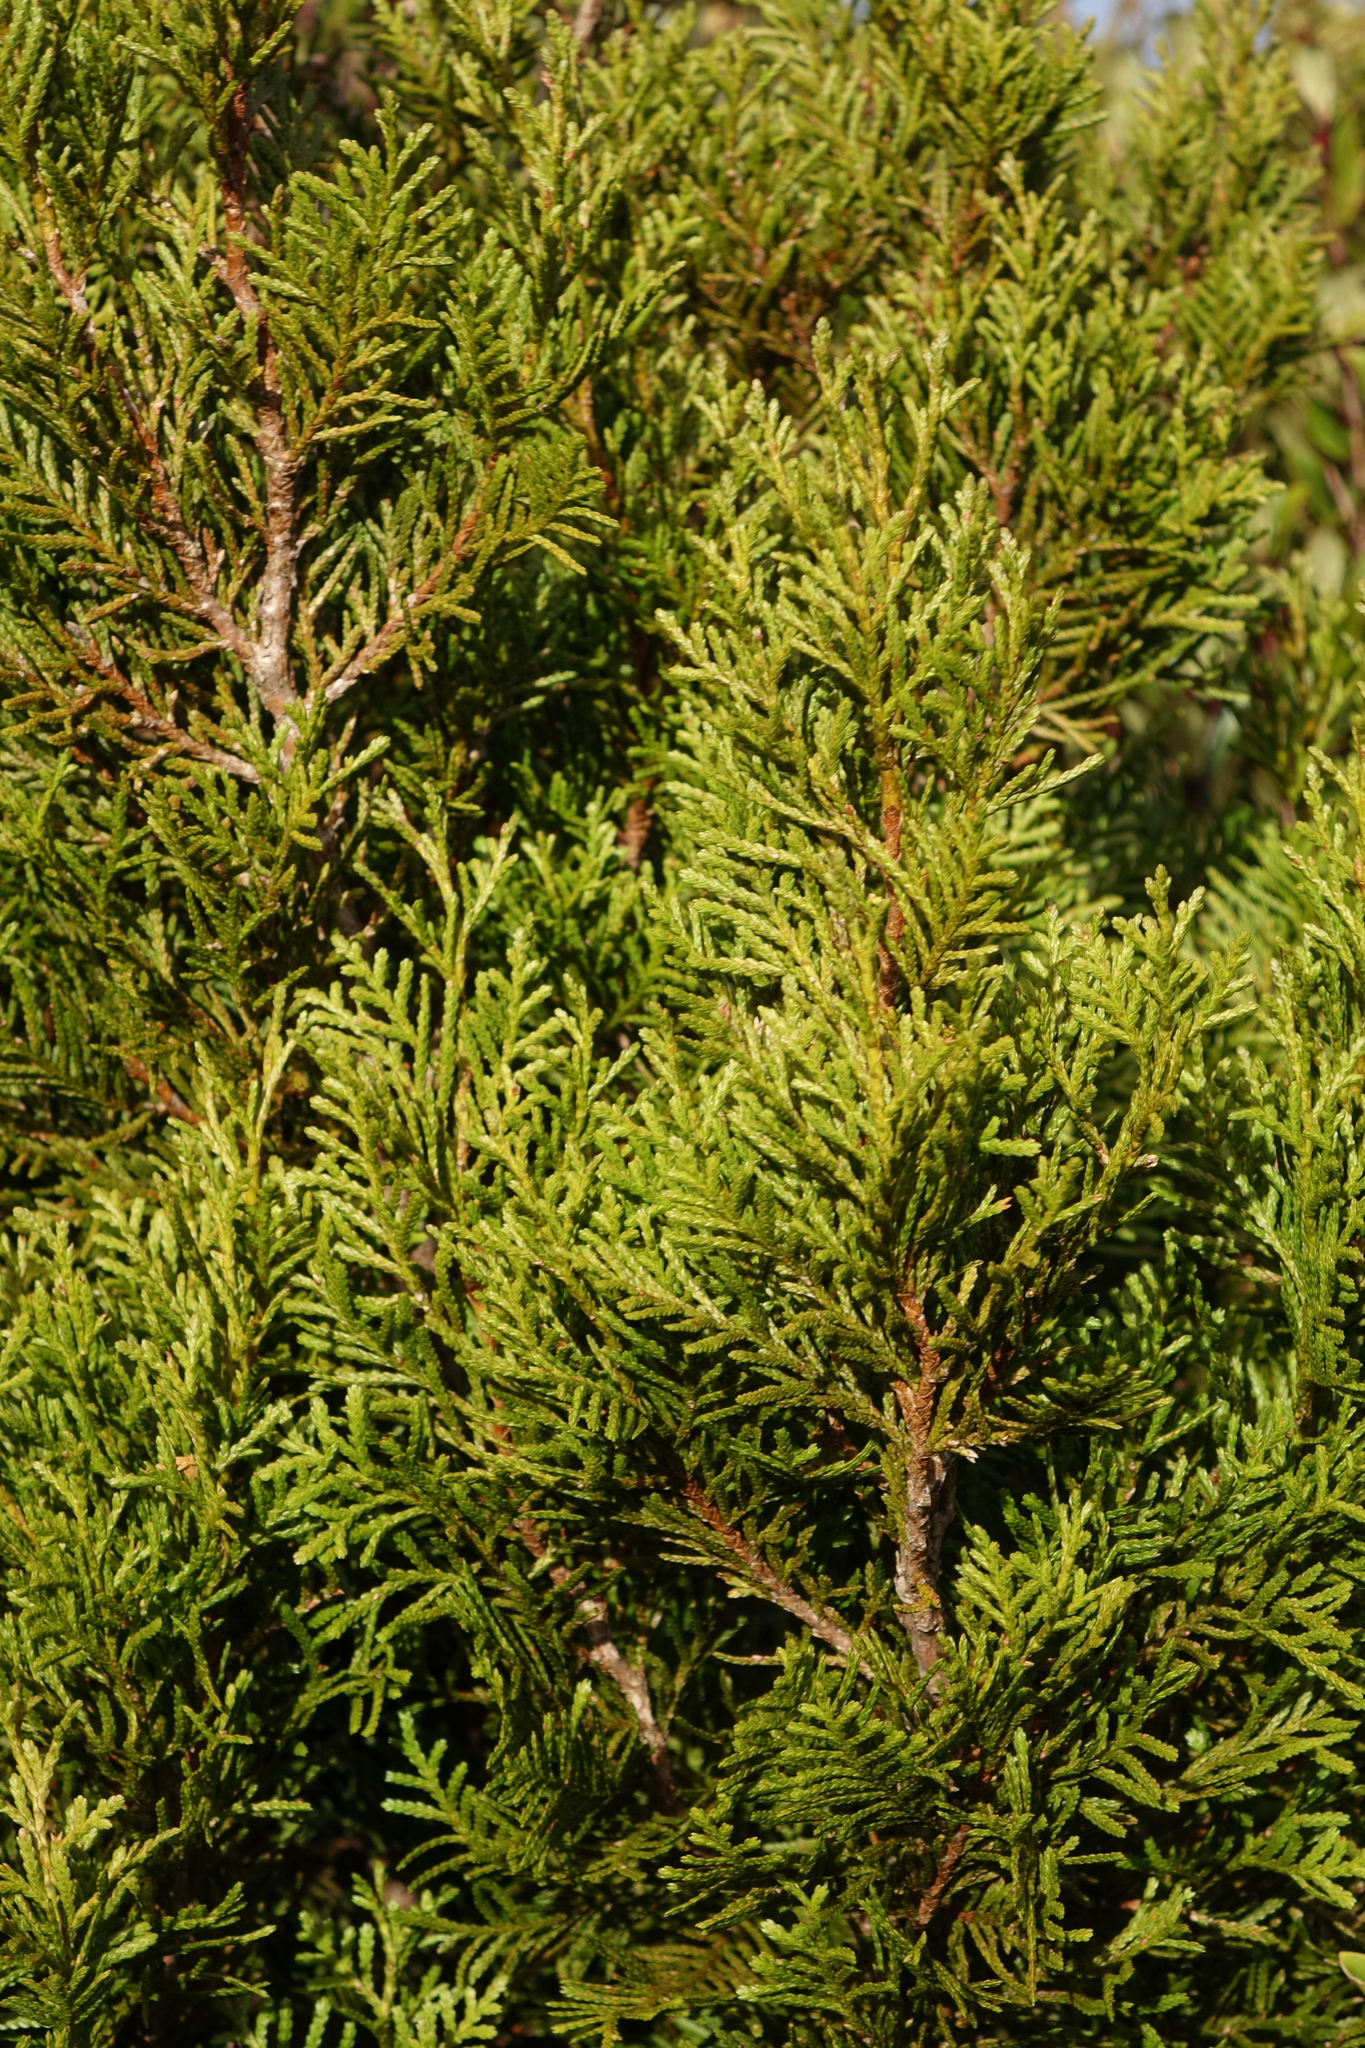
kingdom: Plantae
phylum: Tracheophyta
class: Pinopsida
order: Pinales
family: Cupressaceae
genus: Libocedrus
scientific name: Libocedrus bidwillii
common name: Cedar
